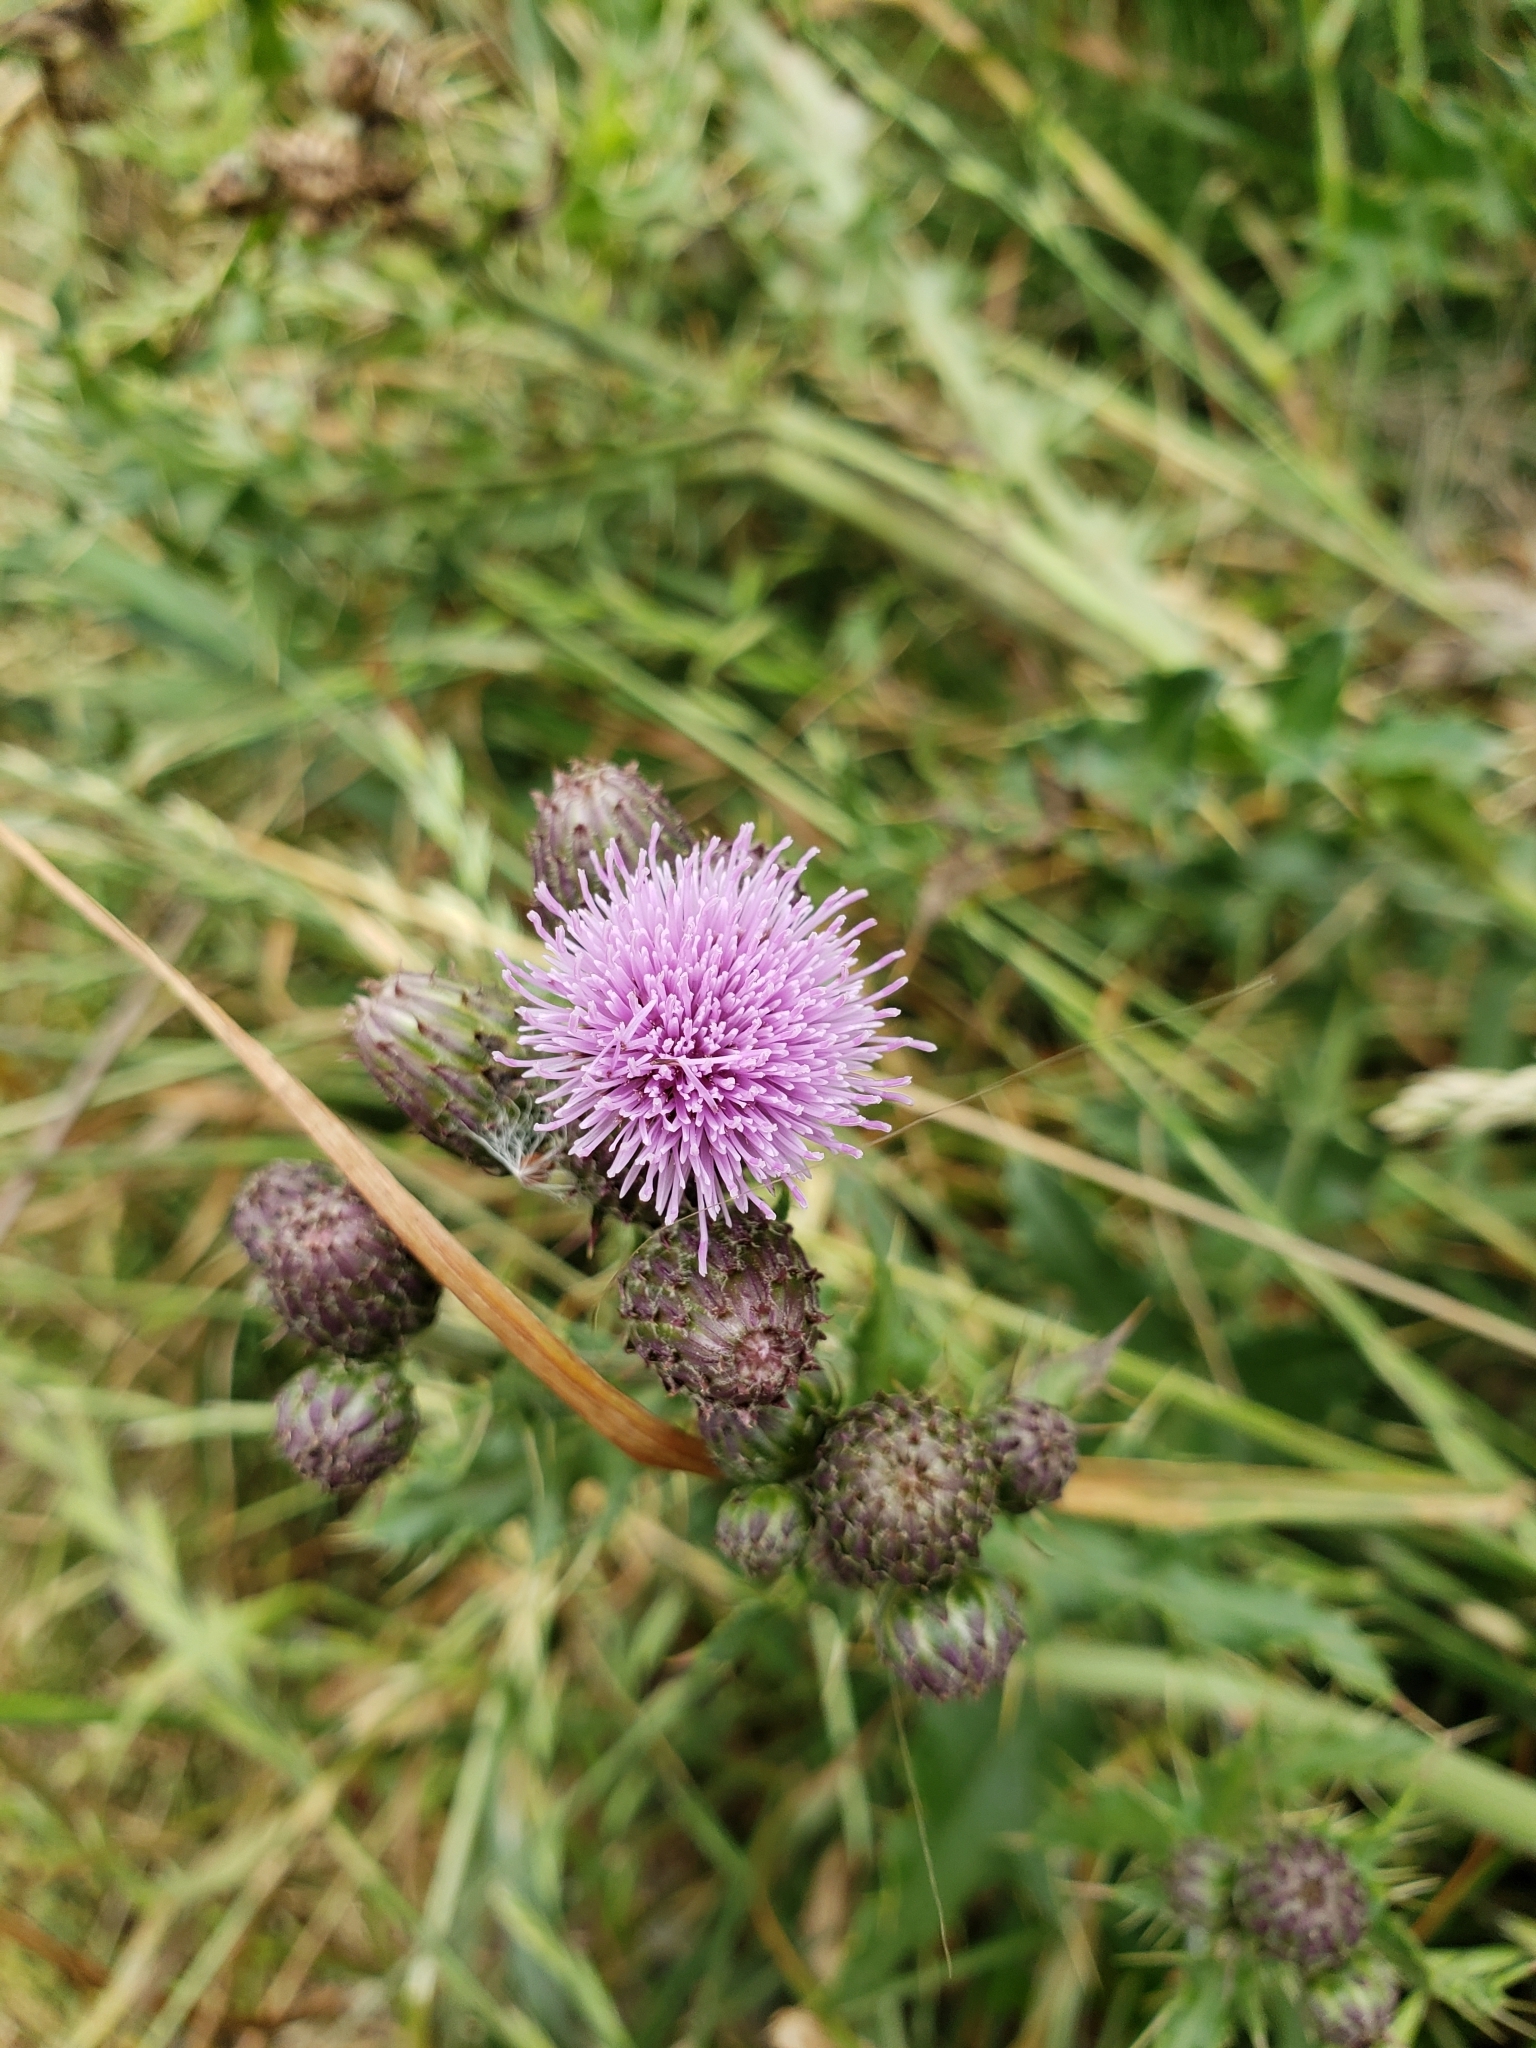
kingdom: Plantae
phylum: Tracheophyta
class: Magnoliopsida
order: Asterales
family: Asteraceae
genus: Cirsium
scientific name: Cirsium arvense
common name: Creeping thistle
